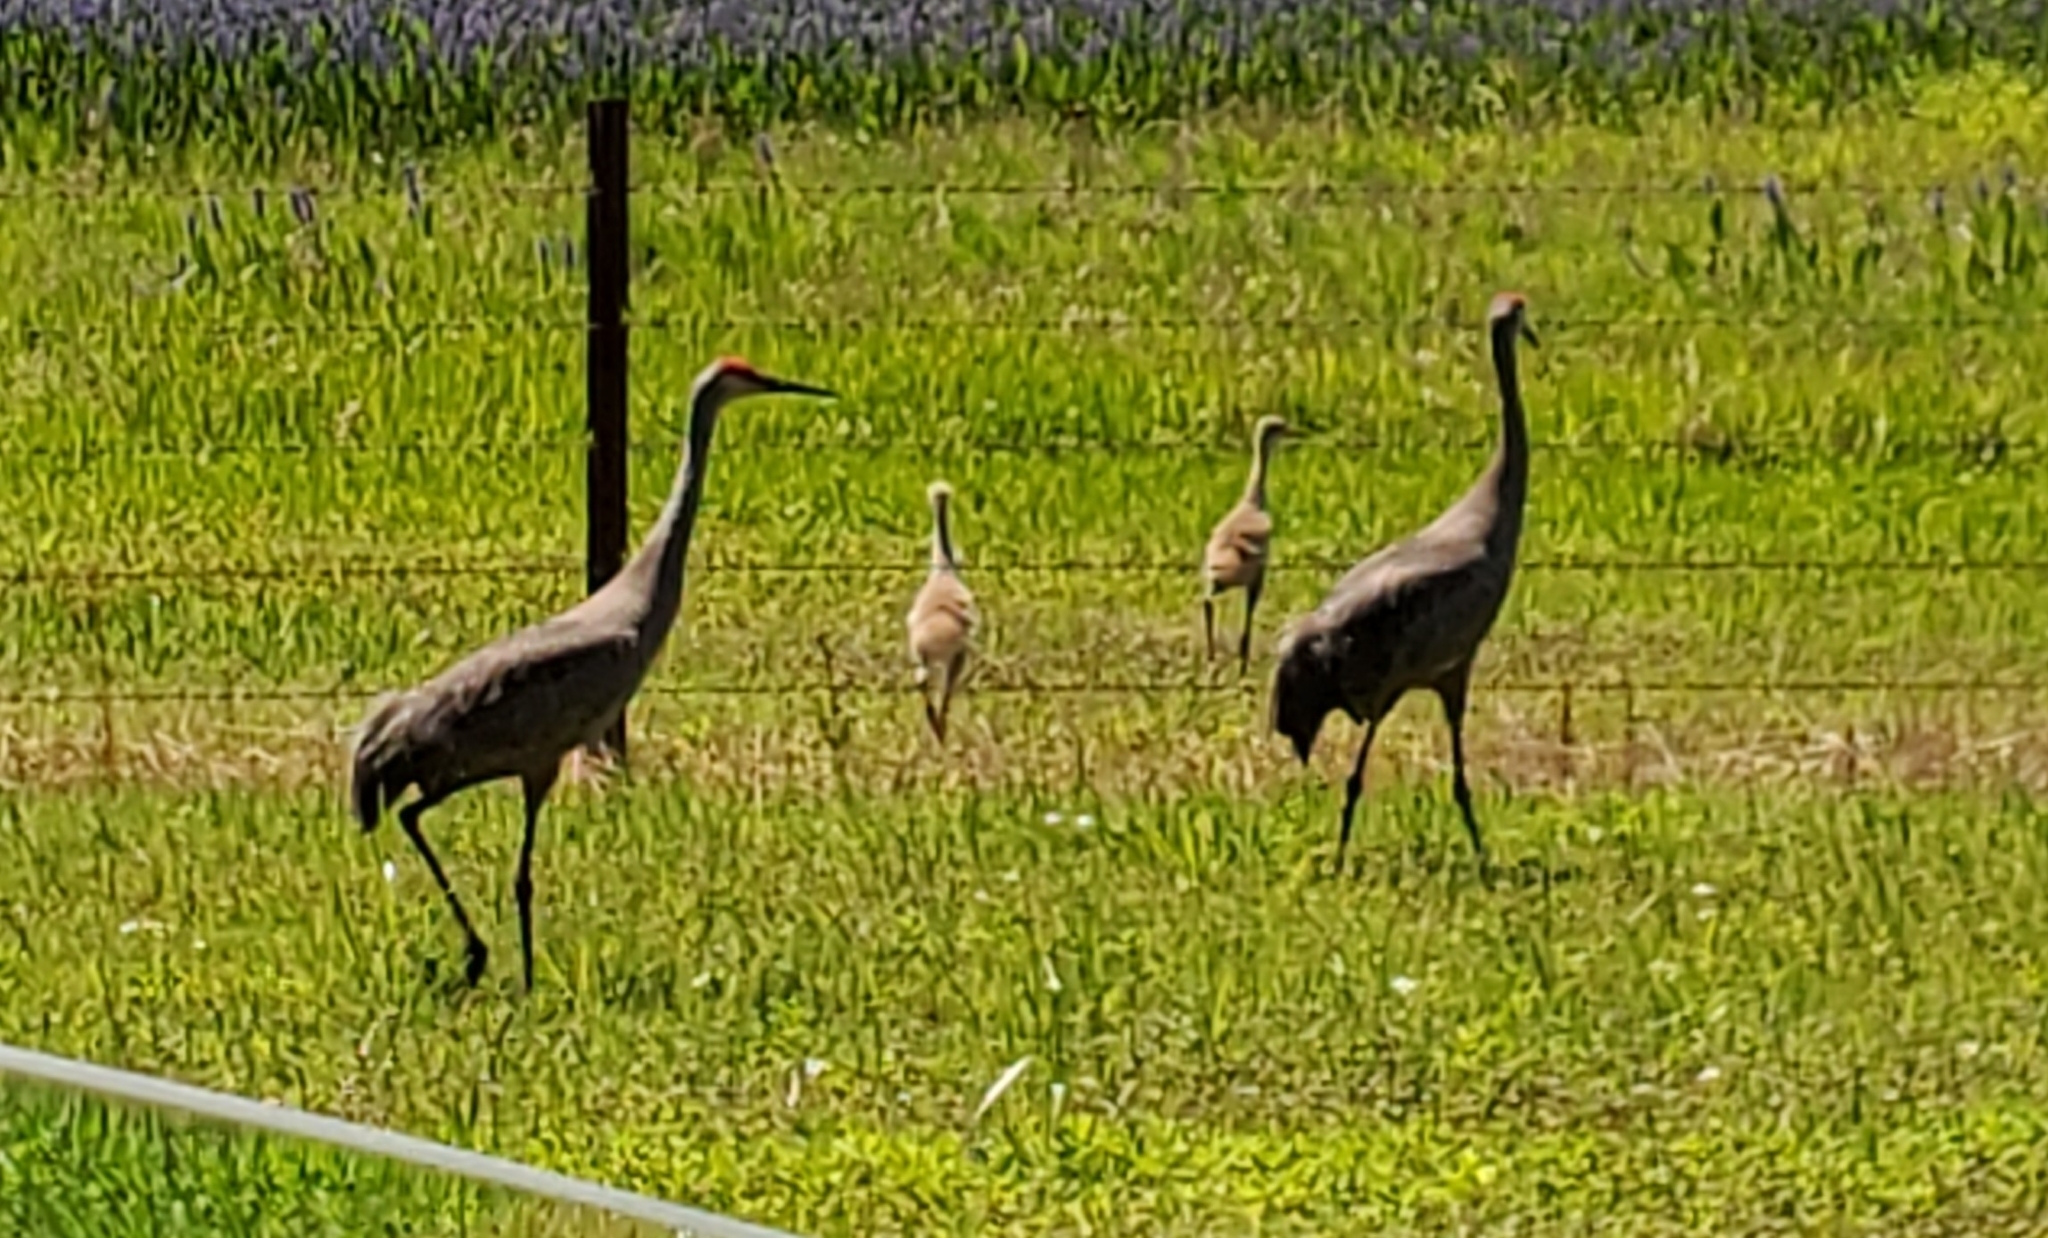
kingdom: Animalia
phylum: Chordata
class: Aves
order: Gruiformes
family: Gruidae
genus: Grus
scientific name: Grus canadensis
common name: Sandhill crane
